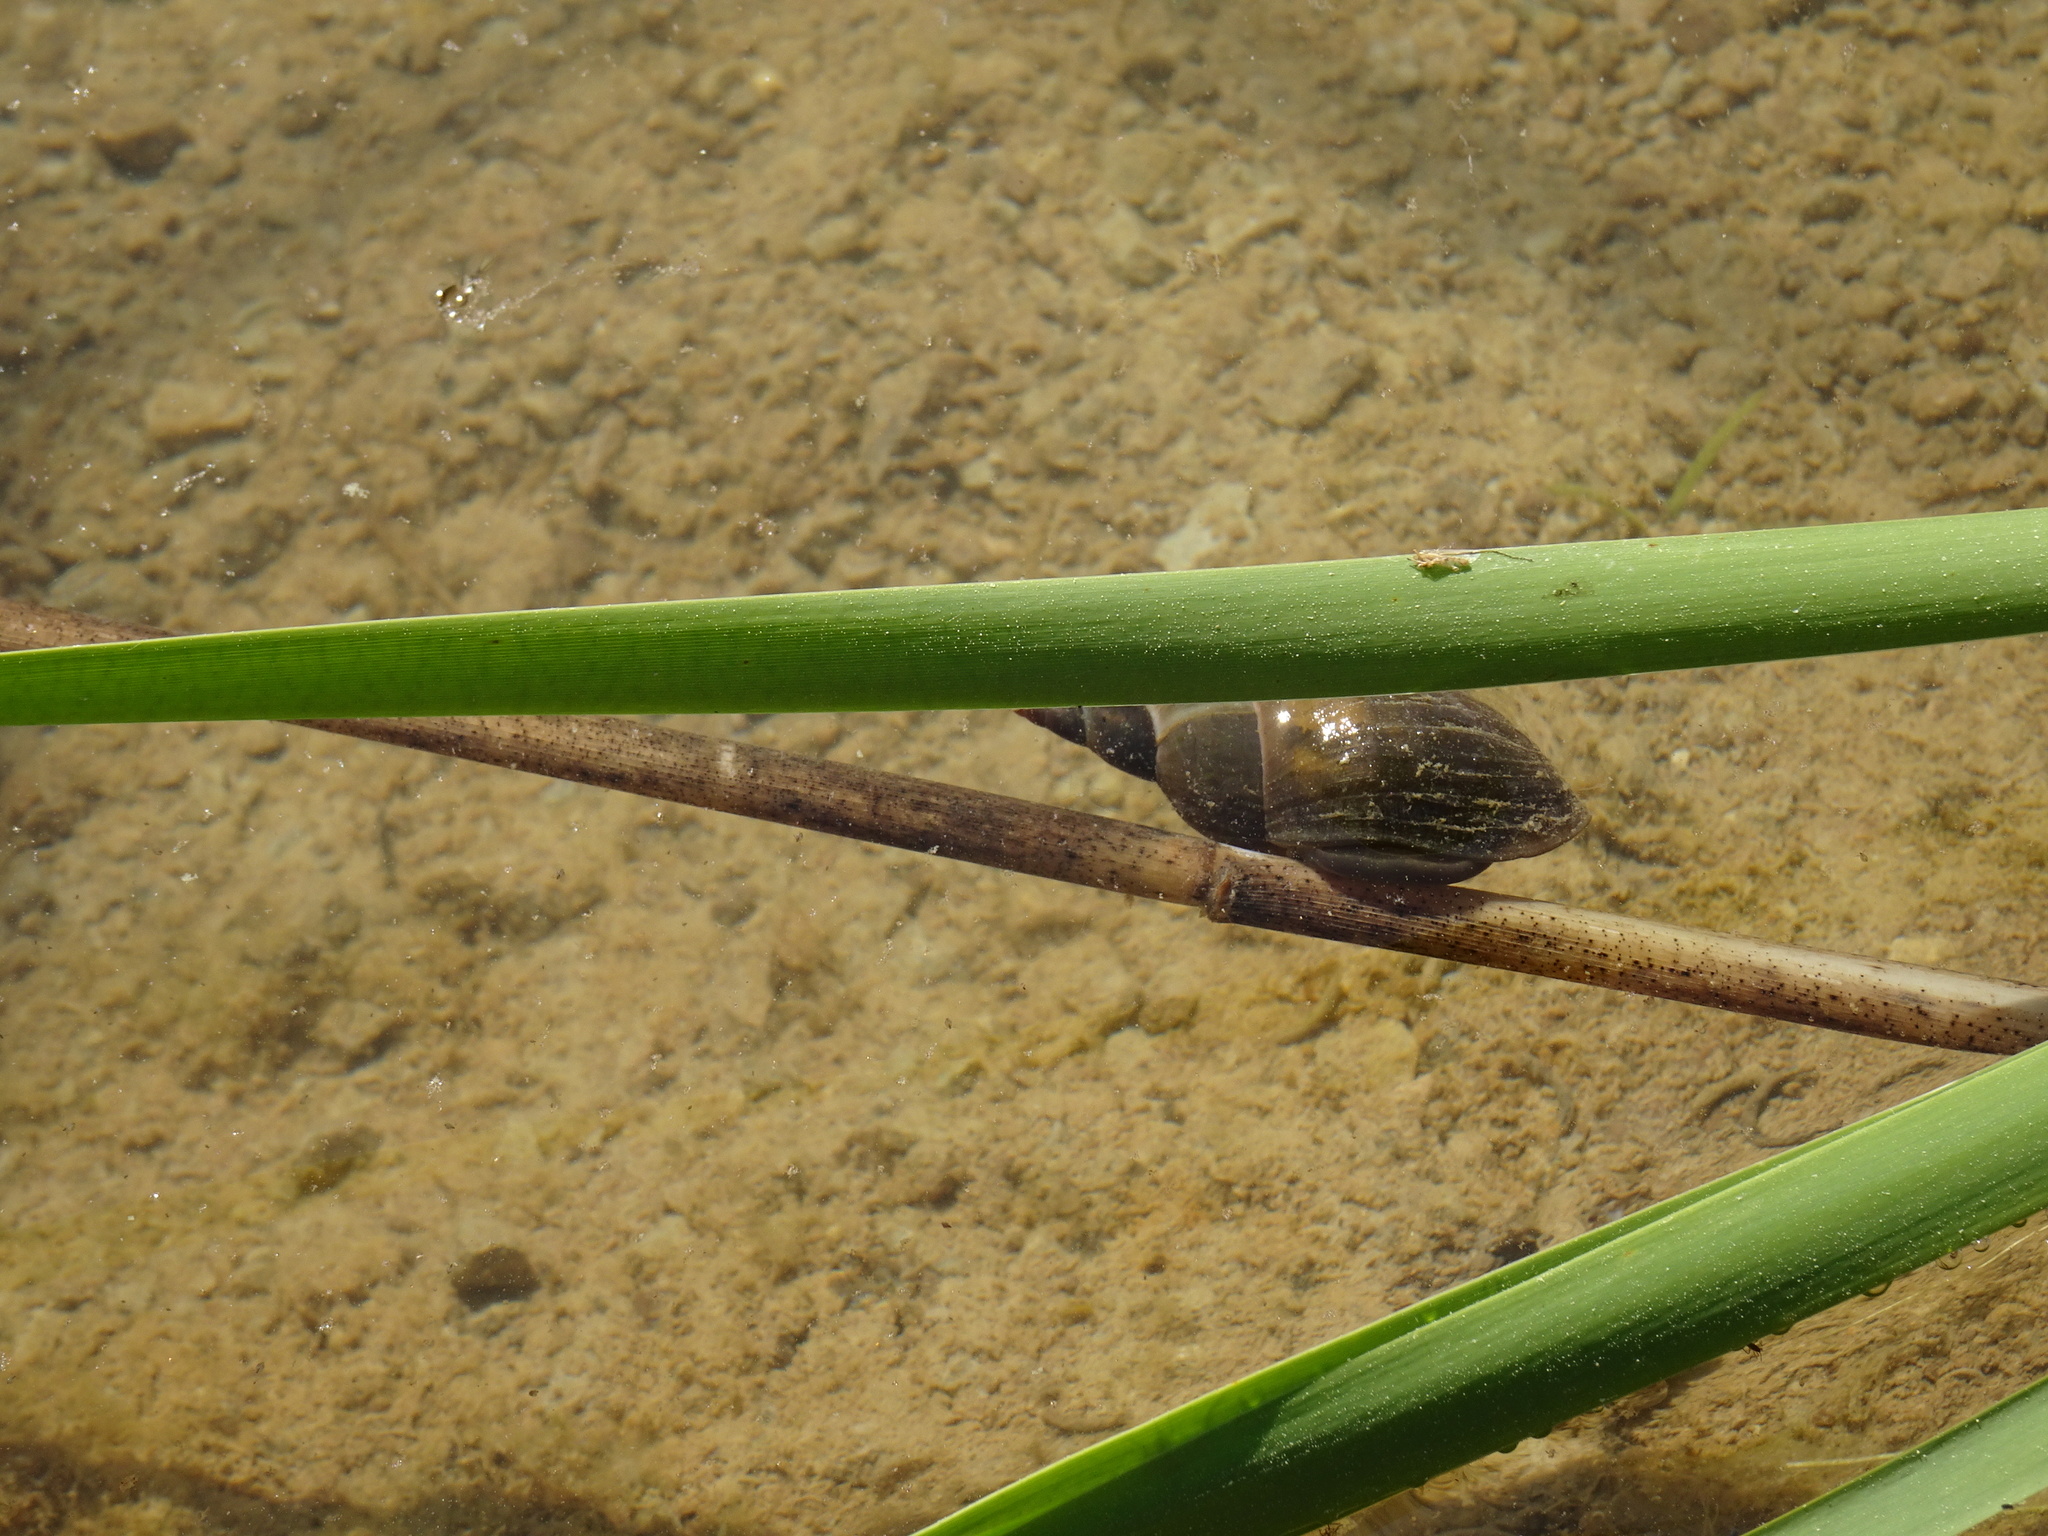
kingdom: Animalia
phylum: Mollusca
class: Gastropoda
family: Lymnaeidae
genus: Lymnaea
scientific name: Lymnaea stagnalis
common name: Great pond snail
